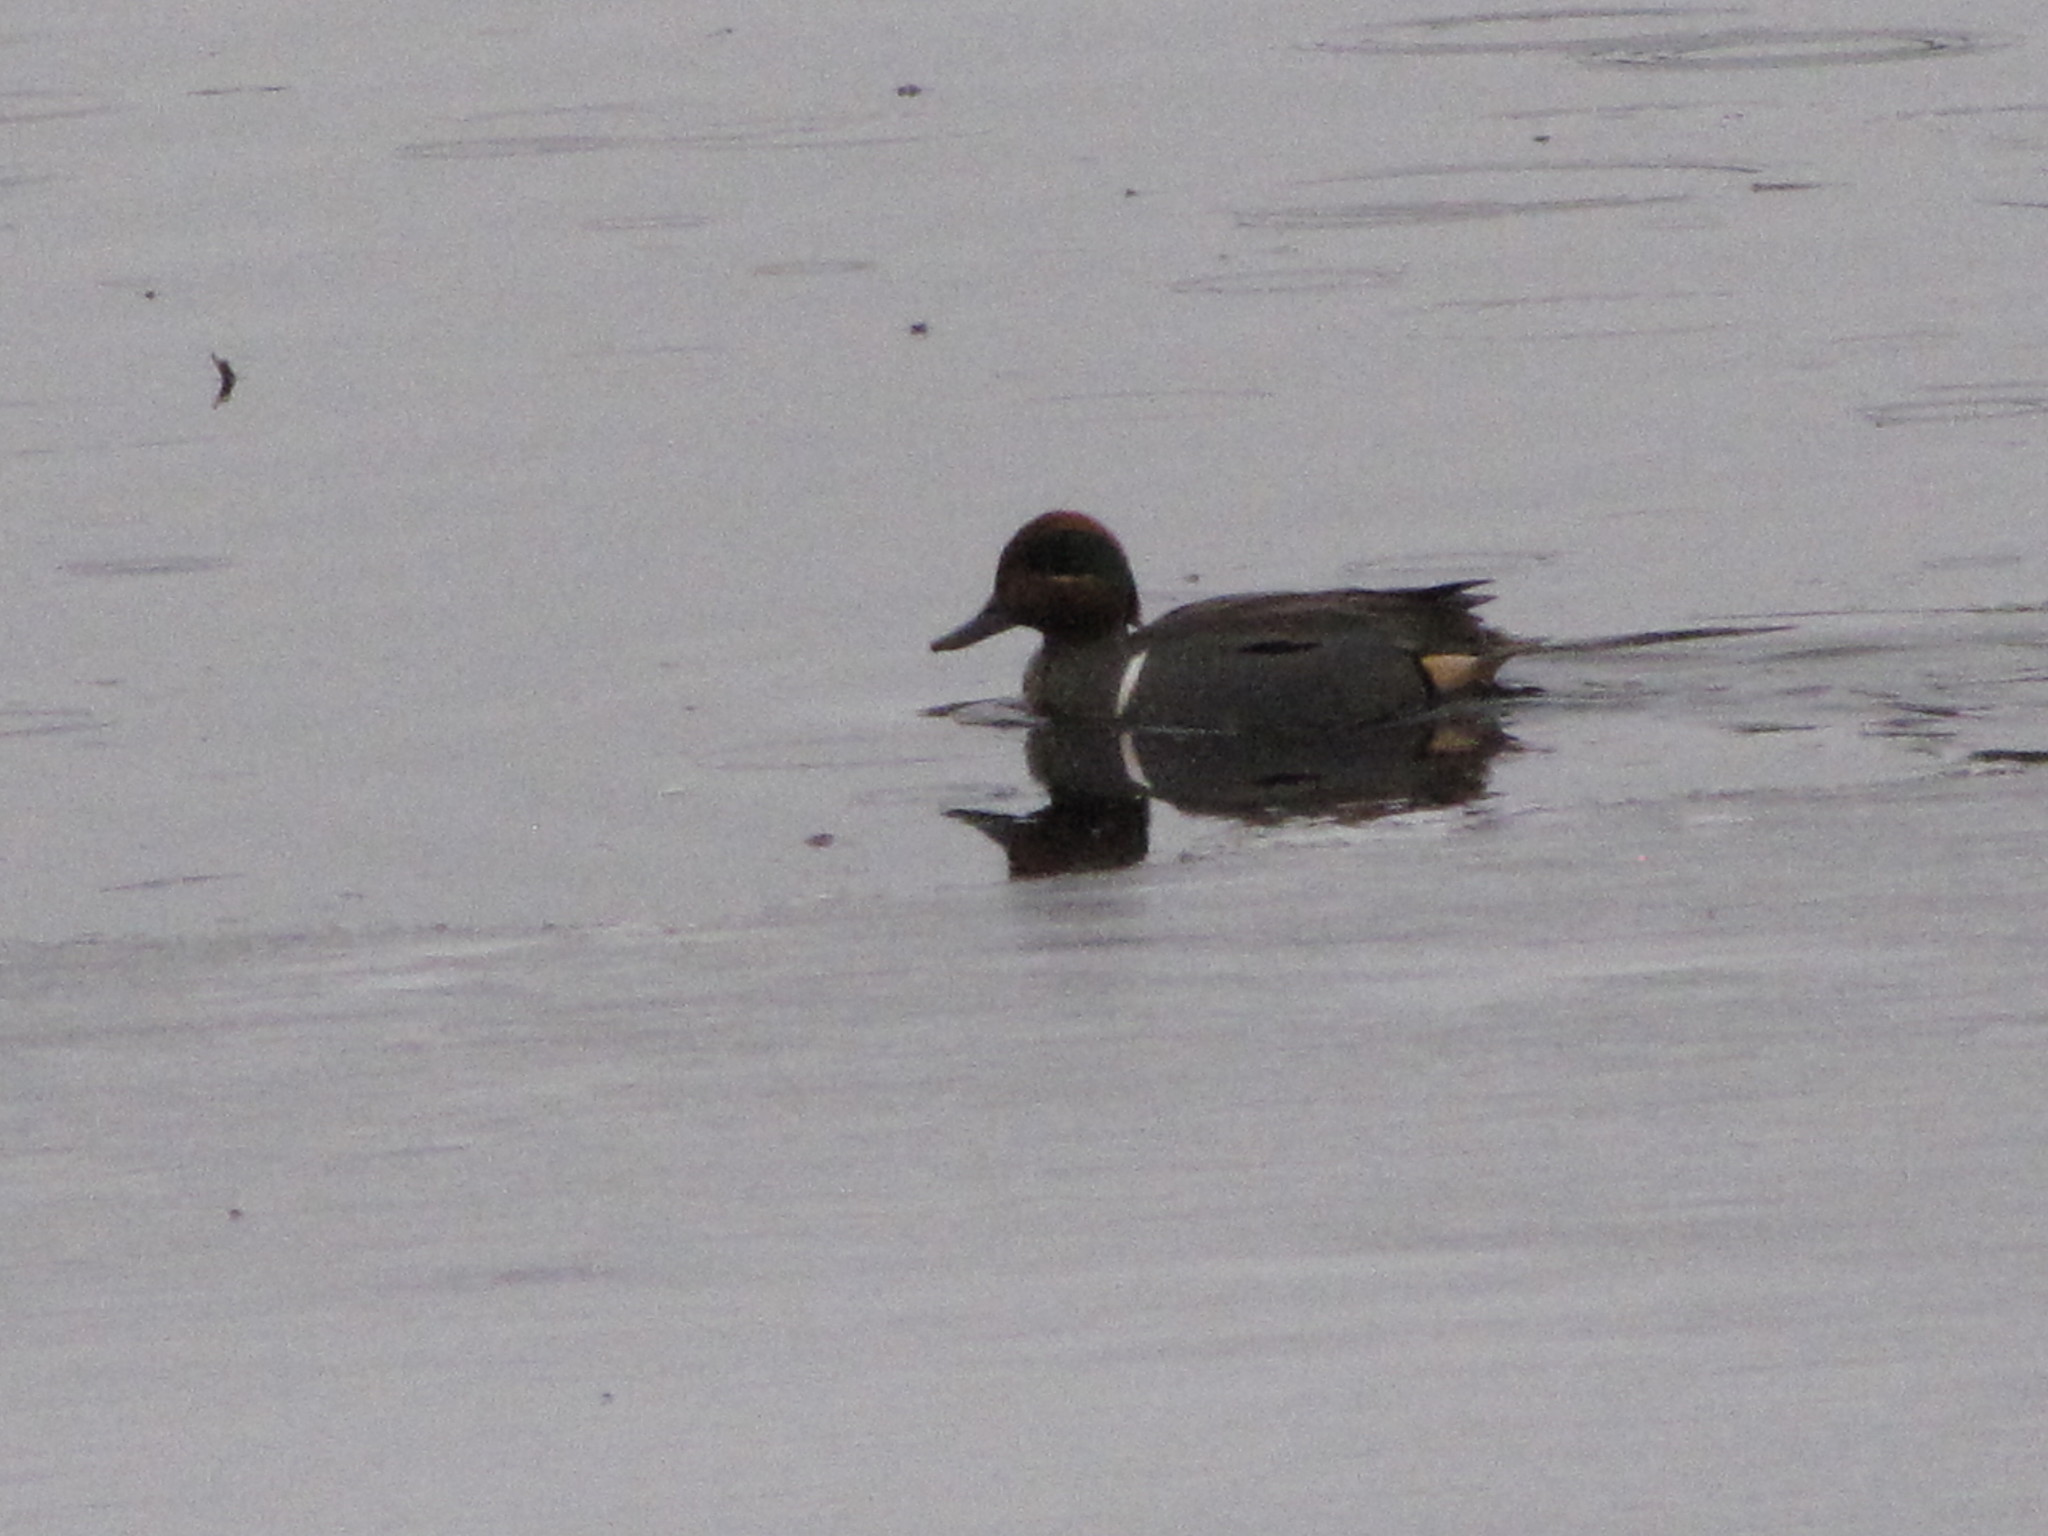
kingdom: Animalia
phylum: Chordata
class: Aves
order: Anseriformes
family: Anatidae
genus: Anas
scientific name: Anas carolinensis
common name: Green-winged teal
